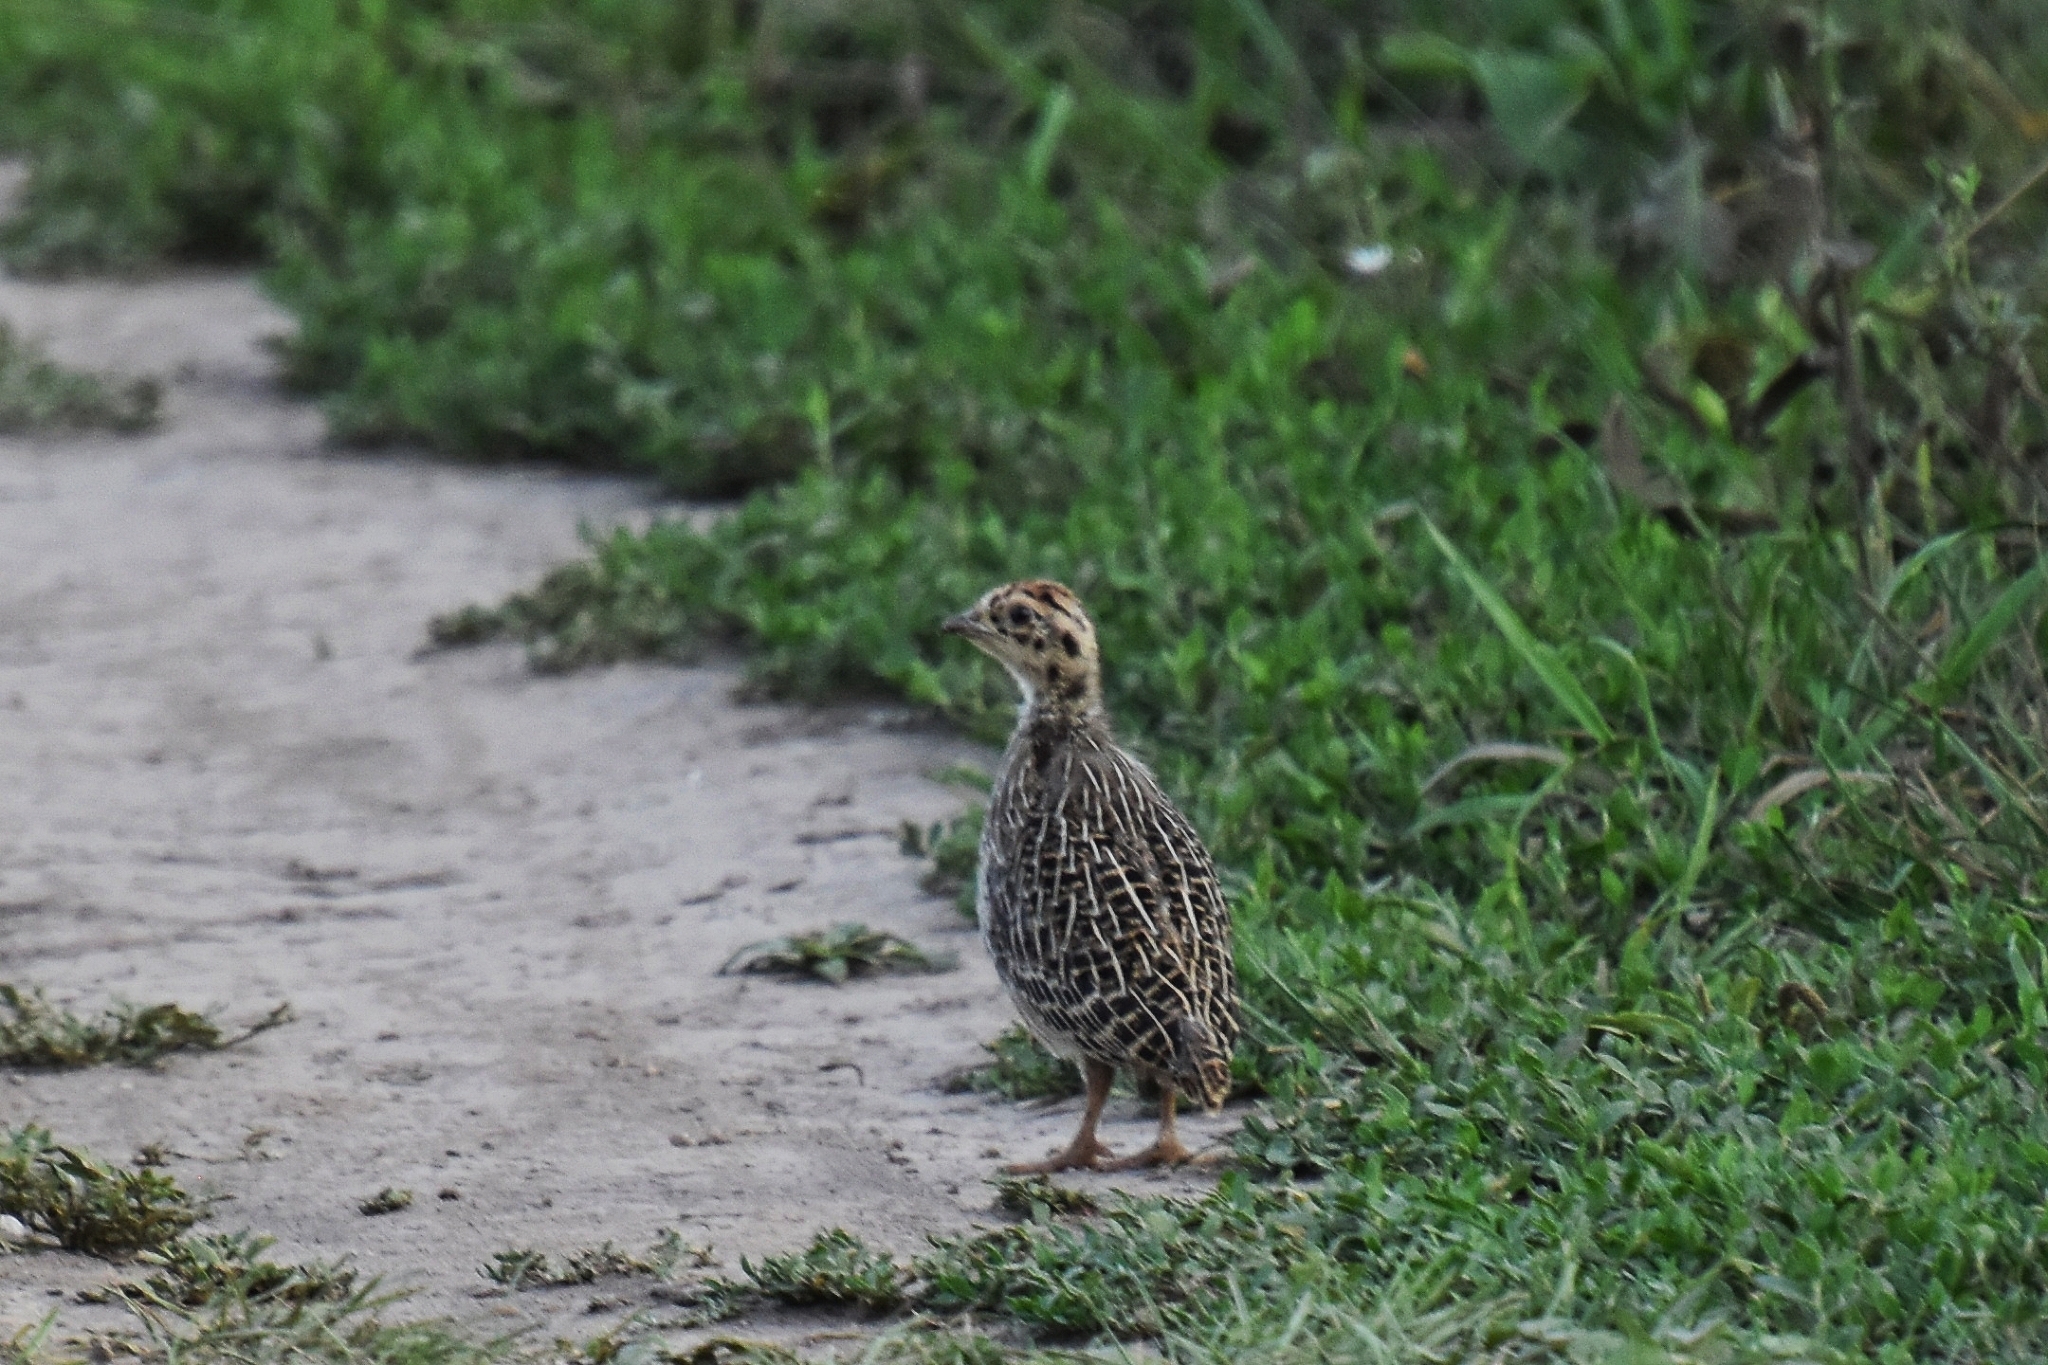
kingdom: Animalia
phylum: Chordata
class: Aves
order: Galliformes
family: Phasianidae
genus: Perdix
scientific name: Perdix perdix
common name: Grey partridge
